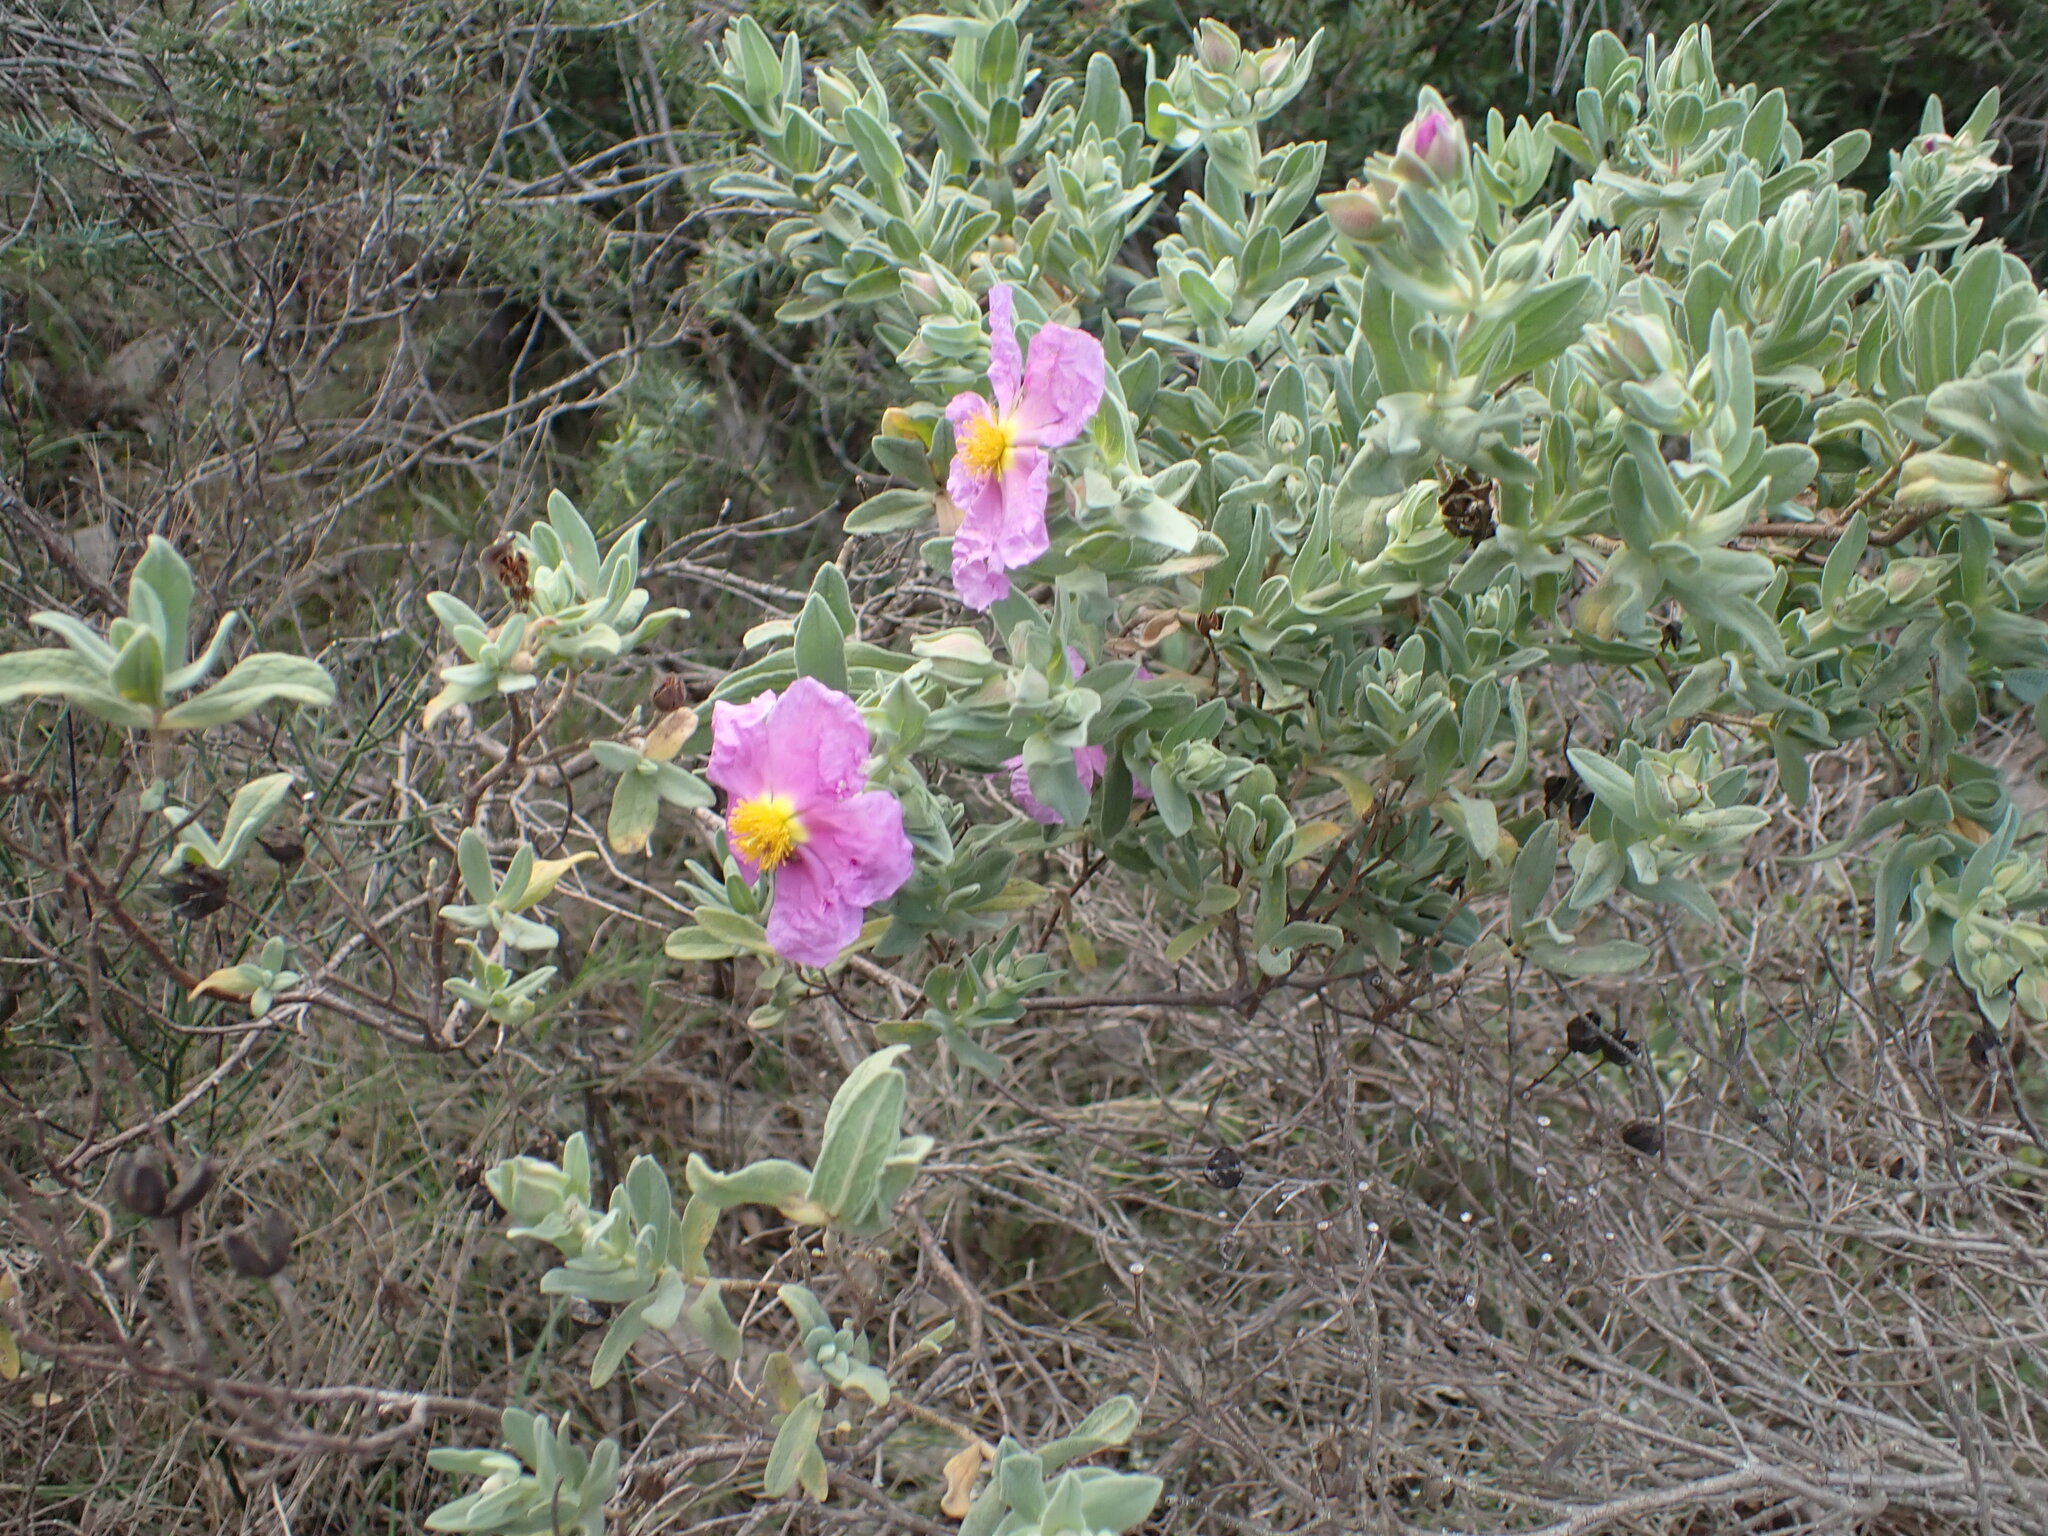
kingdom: Plantae
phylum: Tracheophyta
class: Magnoliopsida
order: Malvales
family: Cistaceae
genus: Cistus
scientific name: Cistus albidus
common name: White-leaf rock-rose
